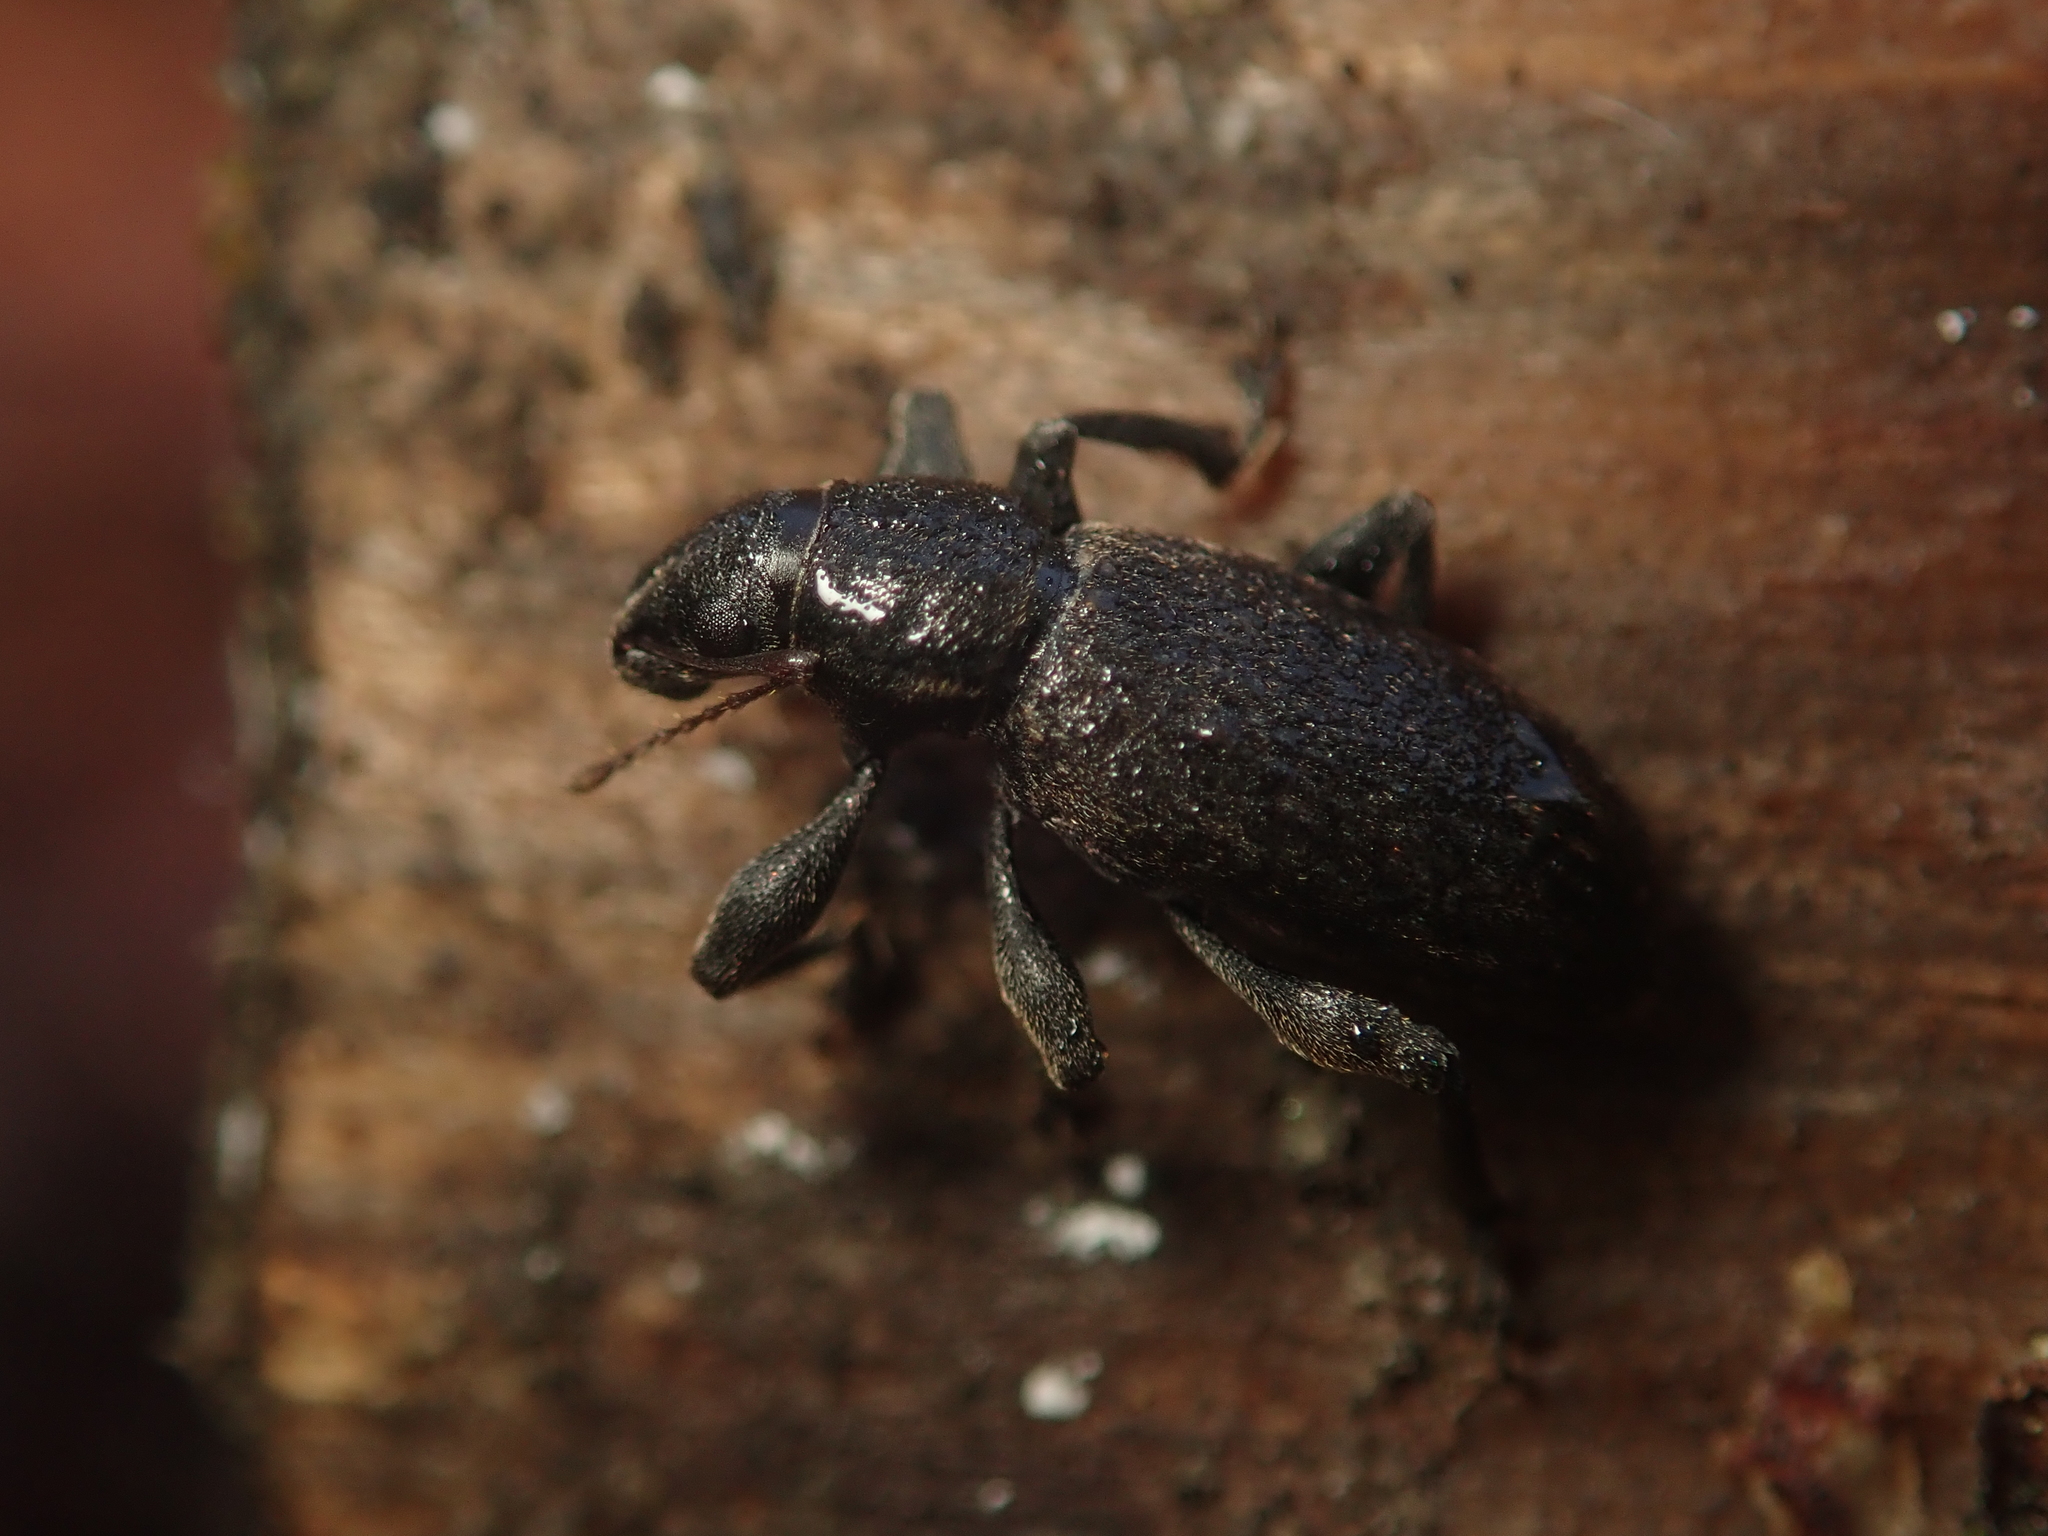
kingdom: Animalia
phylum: Arthropoda
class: Insecta
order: Coleoptera
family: Curculionidae
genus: Brachyderes
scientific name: Brachyderes incanus
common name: Weevil
